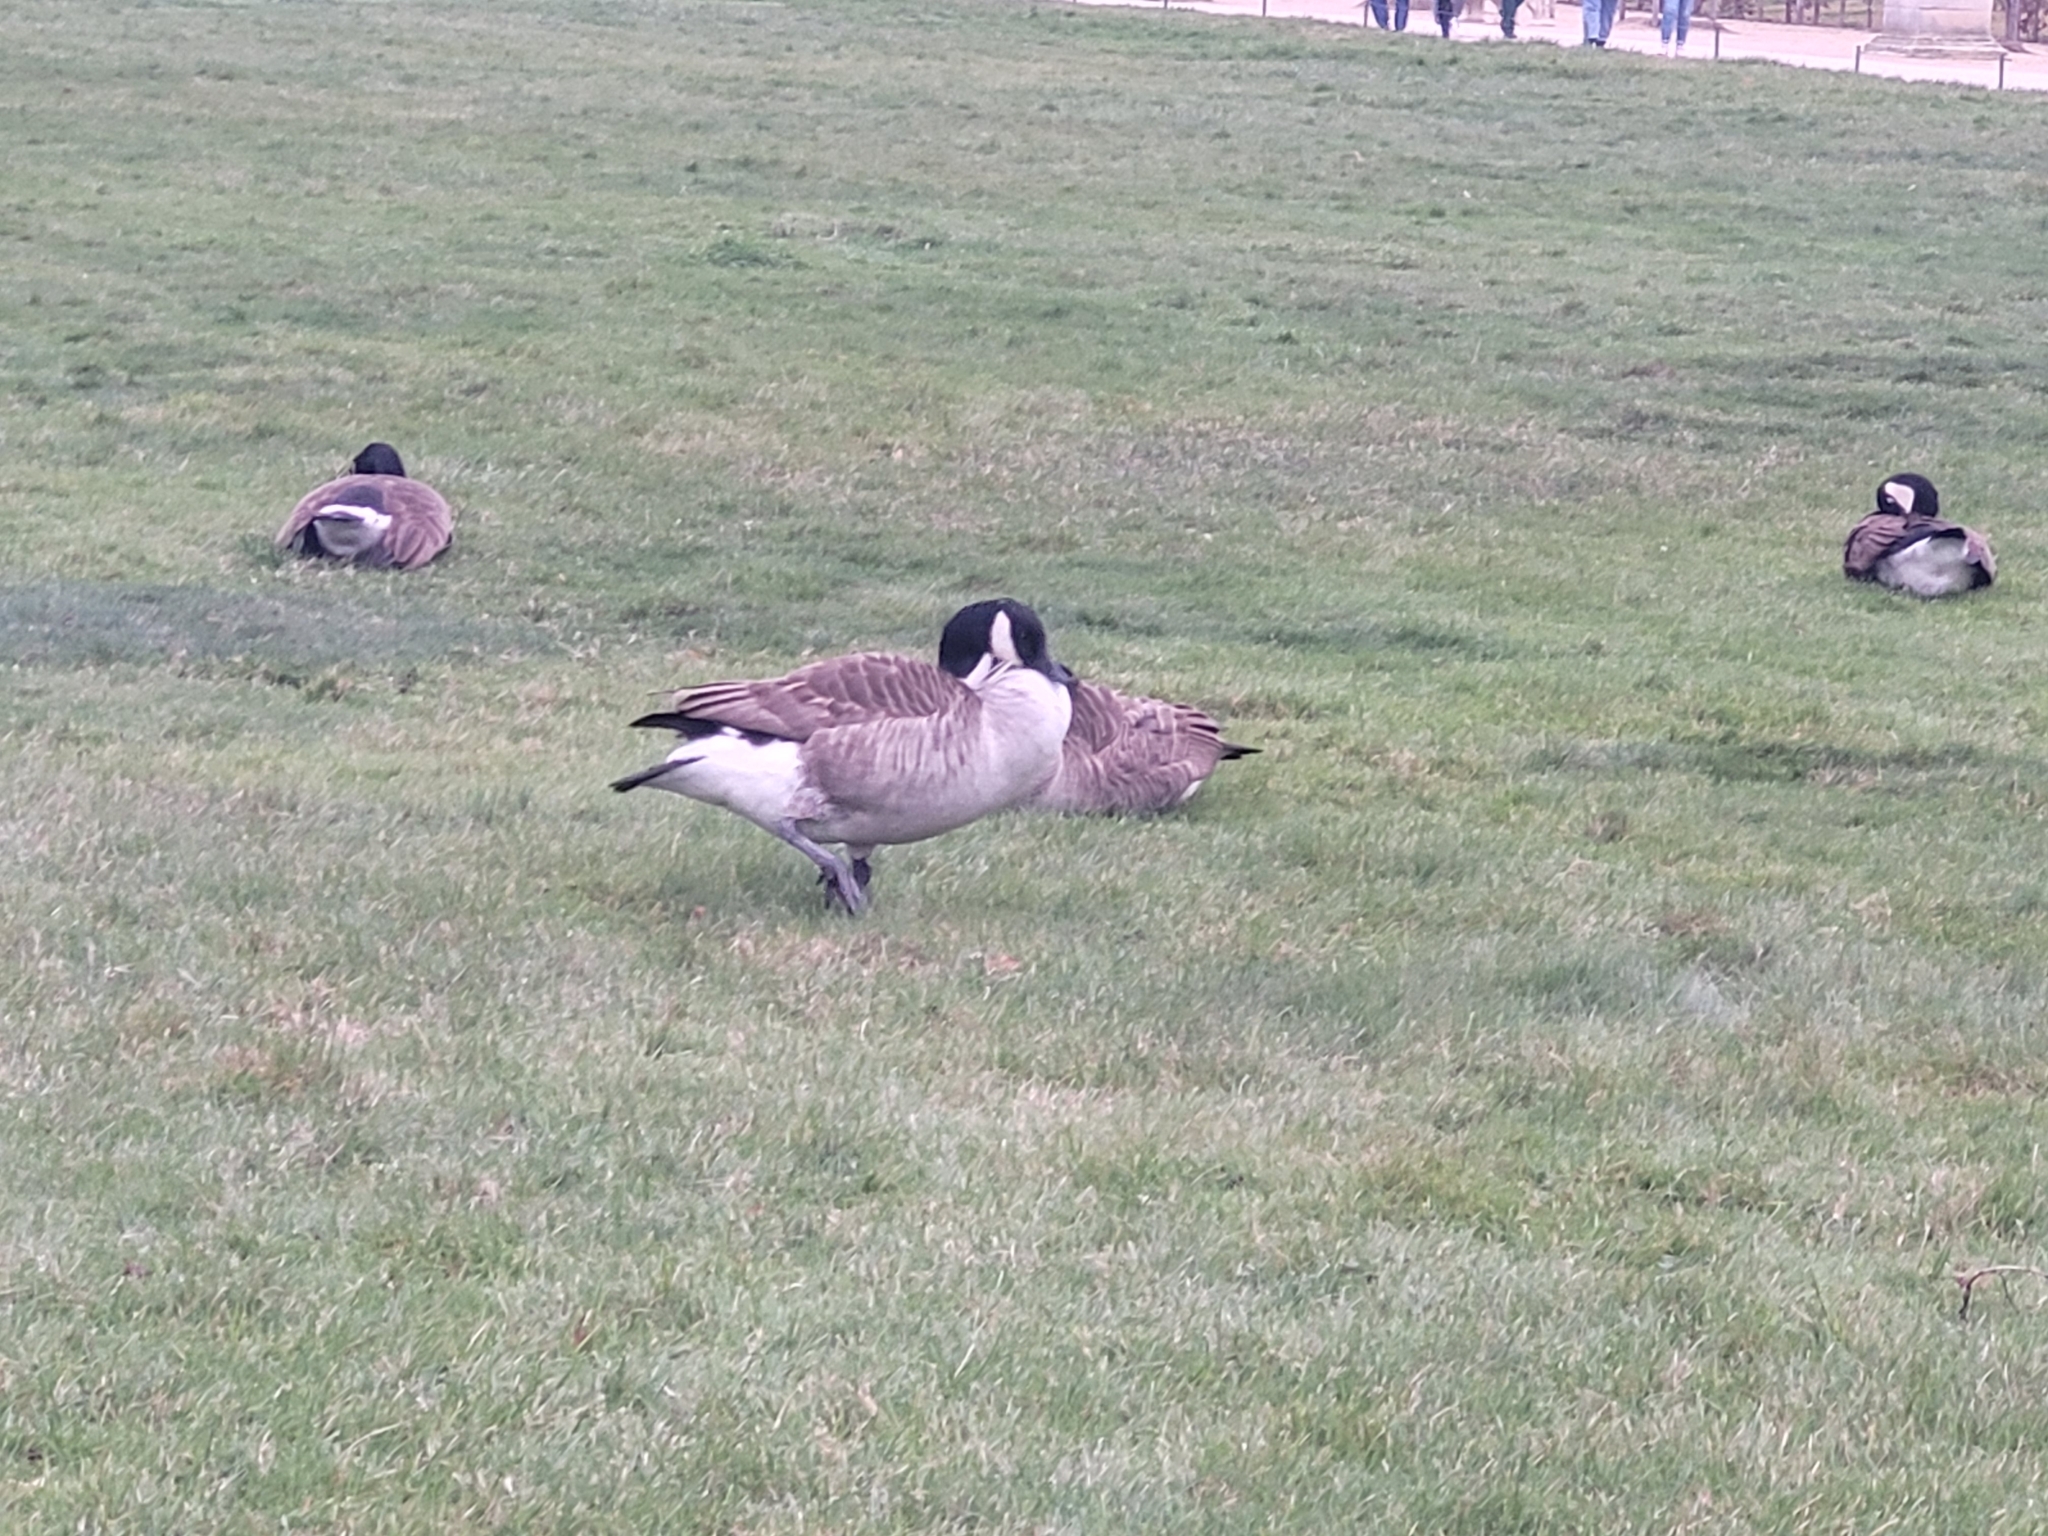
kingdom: Animalia
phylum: Chordata
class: Aves
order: Anseriformes
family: Anatidae
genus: Branta
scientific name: Branta canadensis
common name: Canada goose
